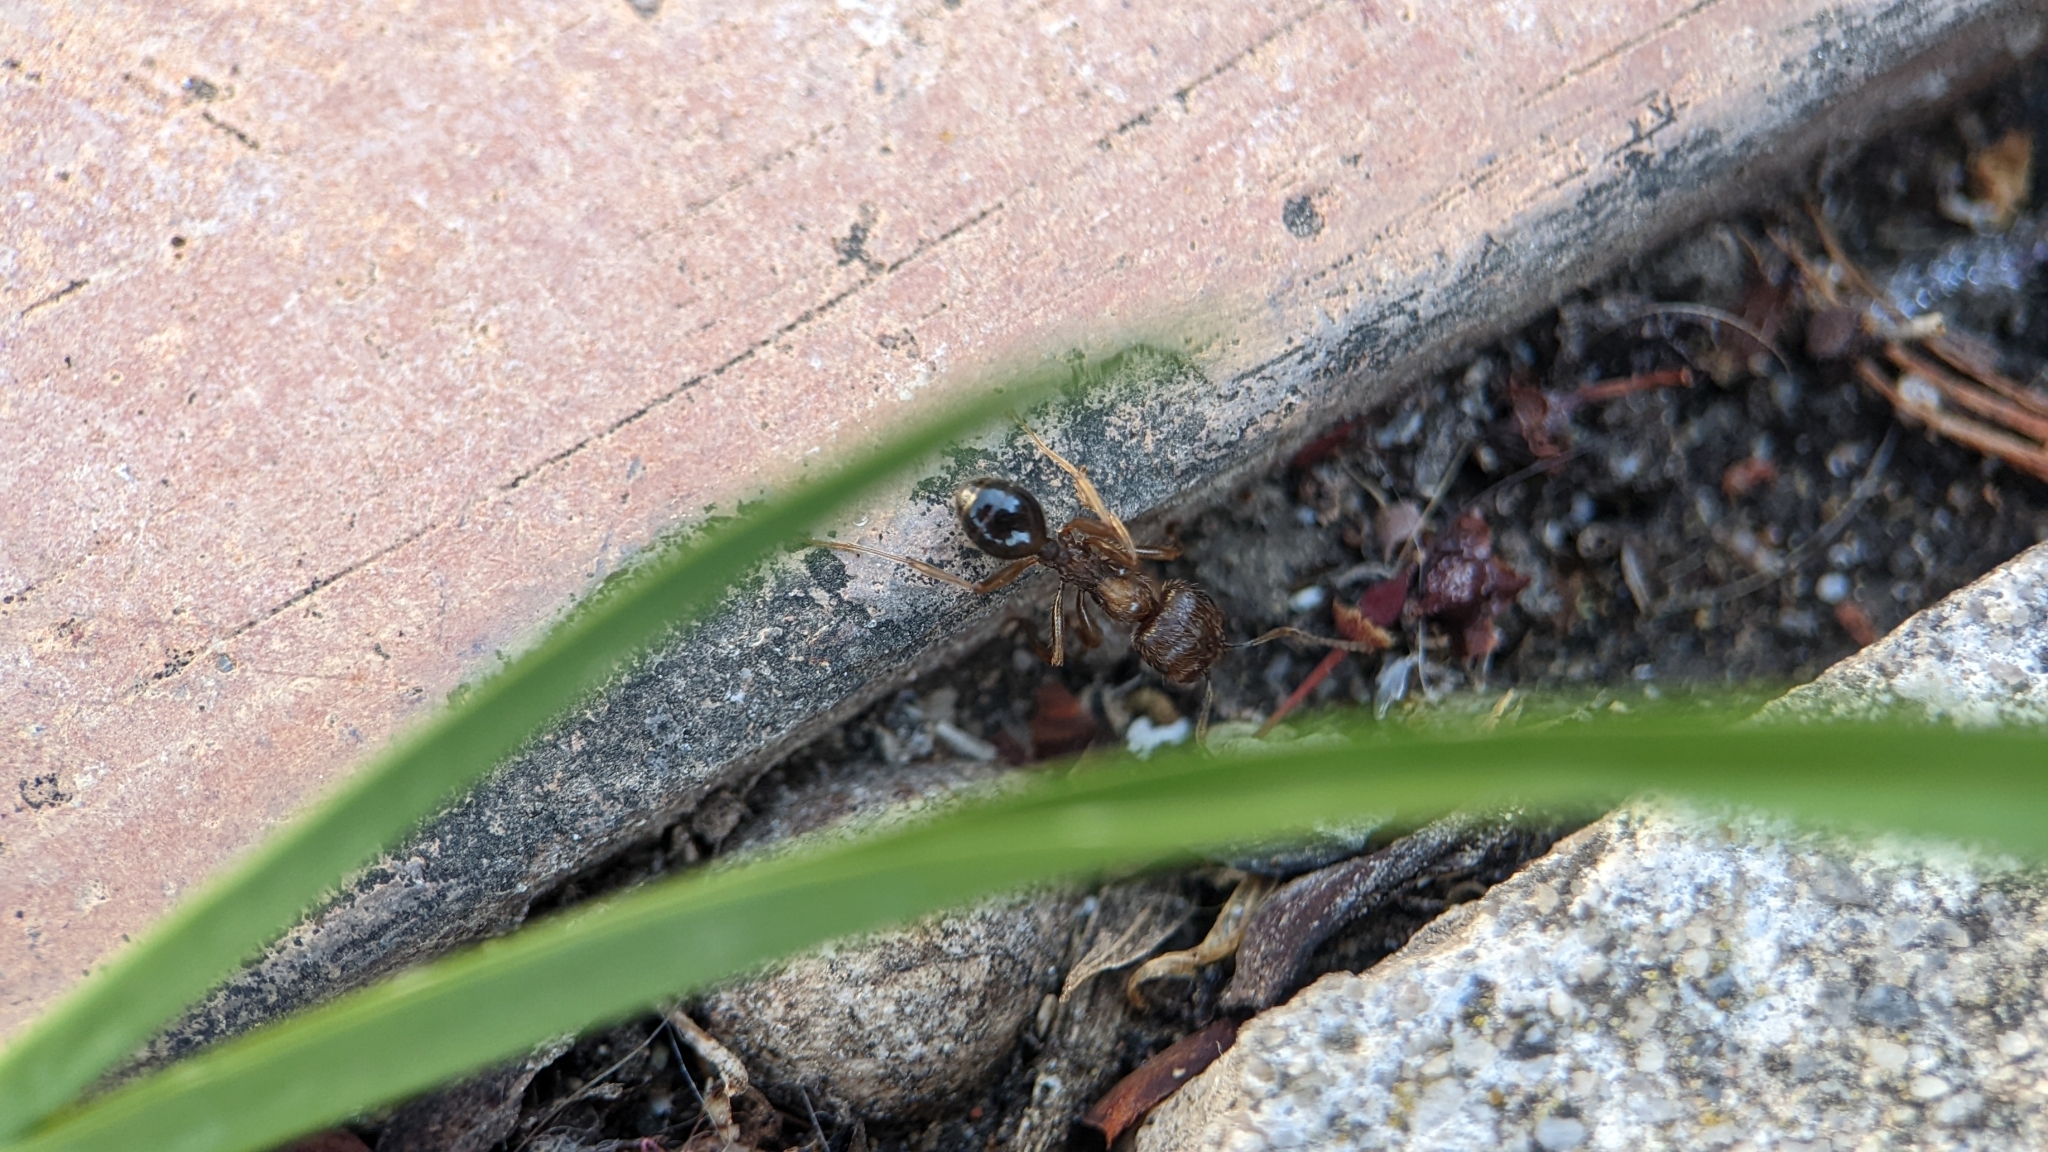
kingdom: Animalia
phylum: Arthropoda
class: Insecta
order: Hymenoptera
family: Formicidae
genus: Messor
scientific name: Messor structor
